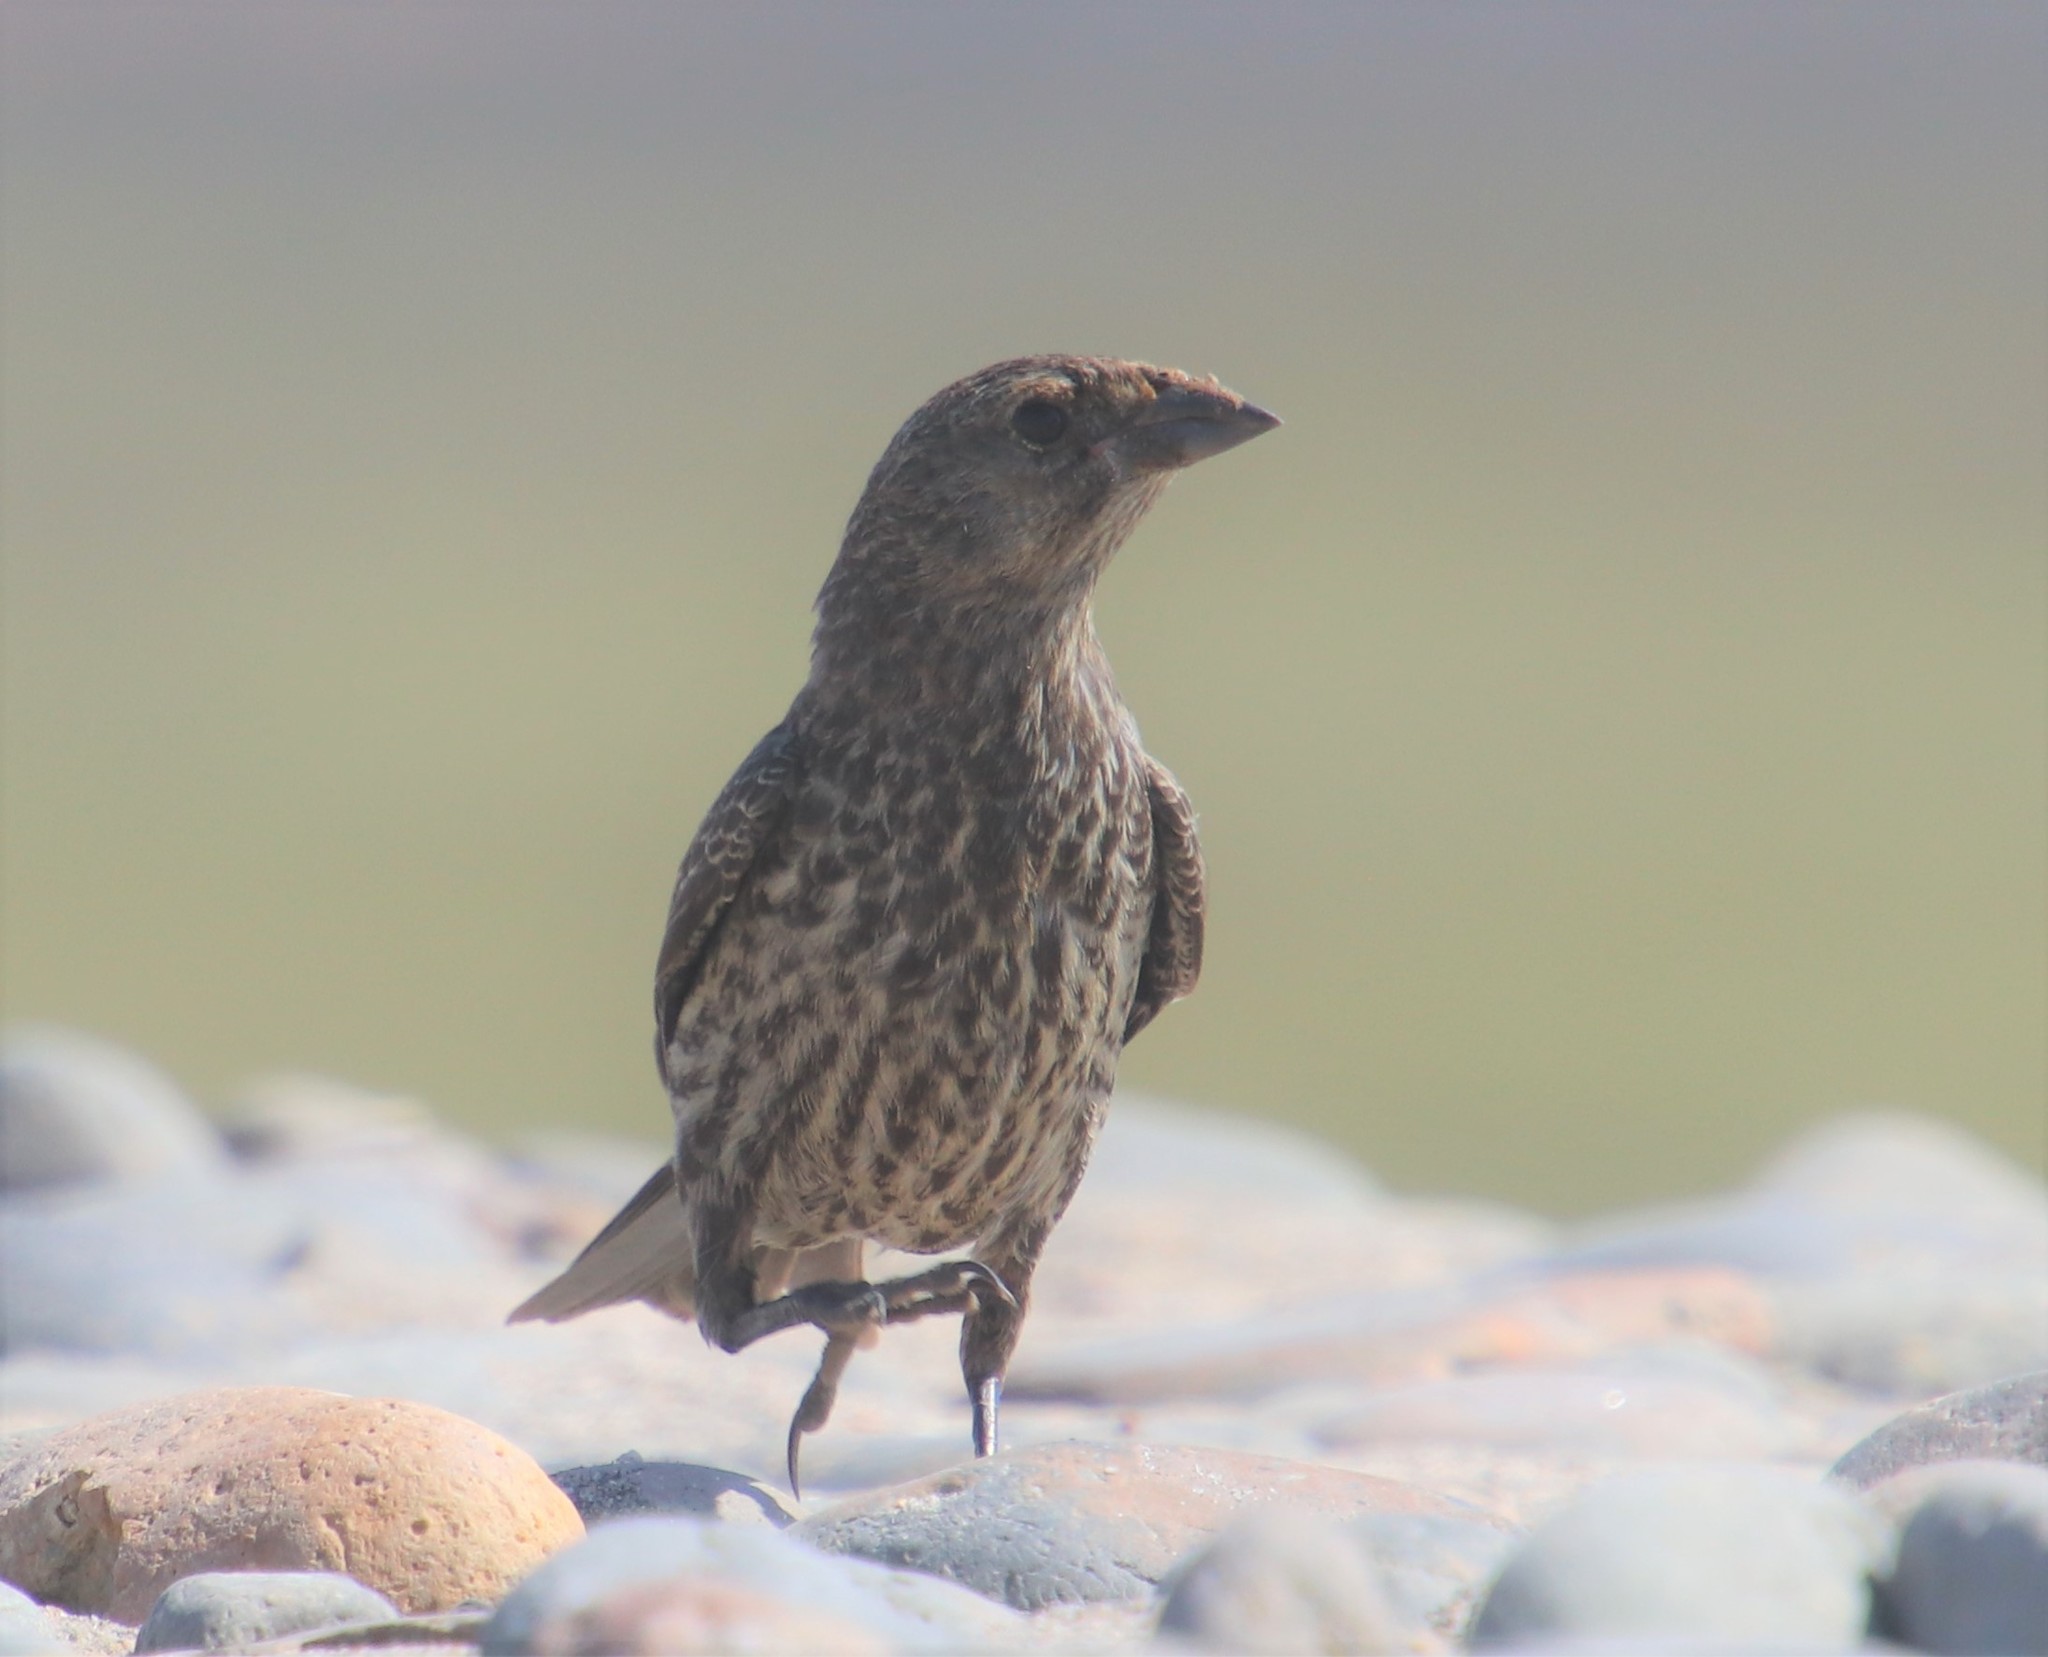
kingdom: Animalia
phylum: Chordata
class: Aves
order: Passeriformes
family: Icteridae
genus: Molothrus
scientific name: Molothrus ater
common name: Brown-headed cowbird
